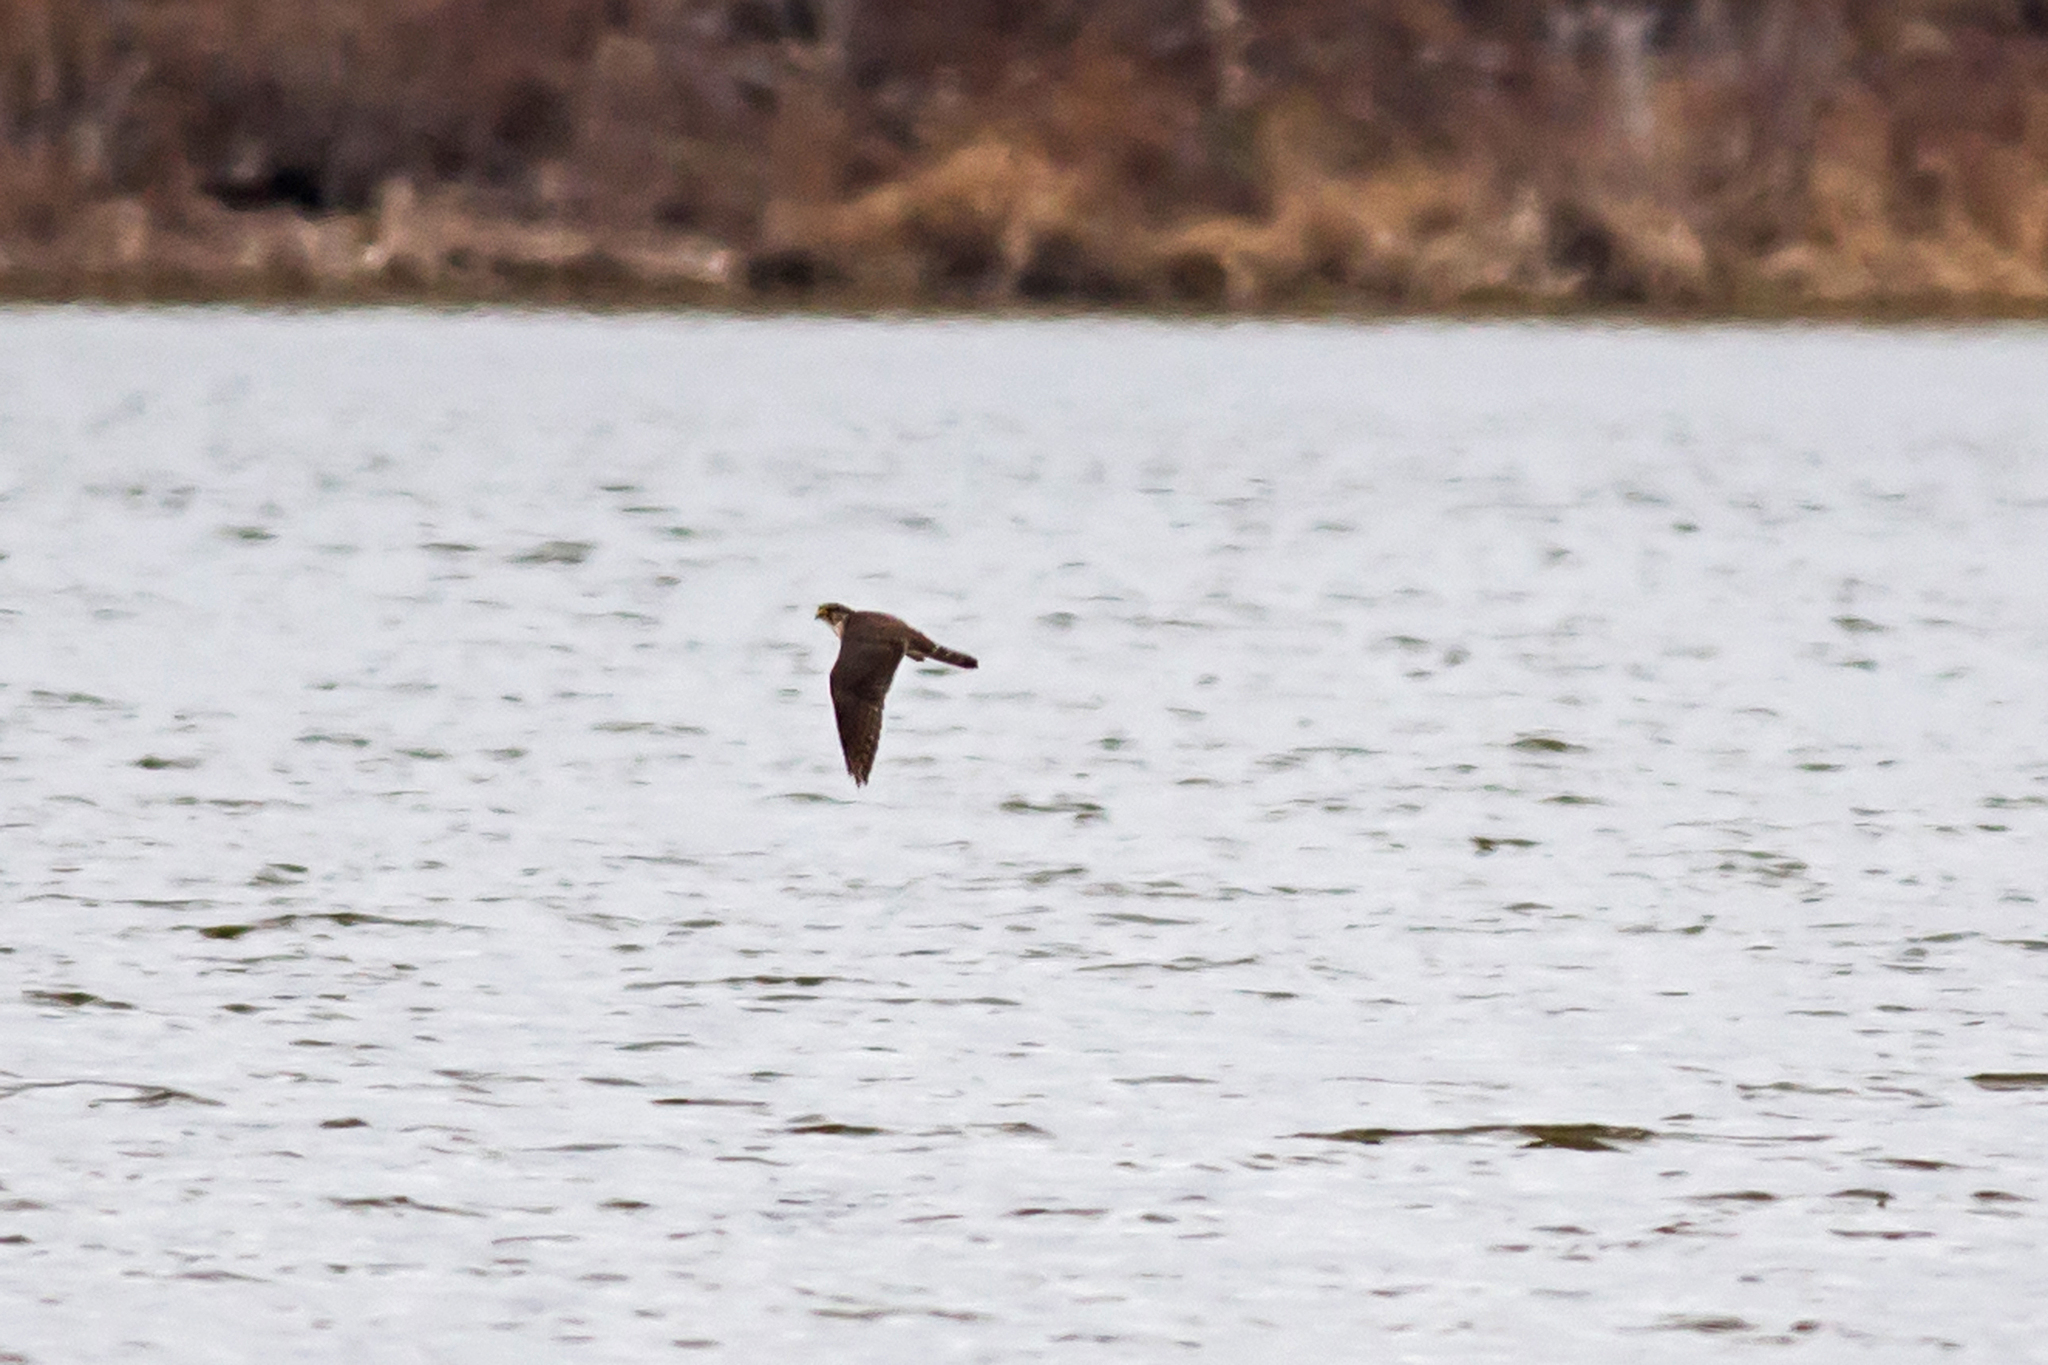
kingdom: Animalia
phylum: Chordata
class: Aves
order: Falconiformes
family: Falconidae
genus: Falco
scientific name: Falco columbarius
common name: Merlin
